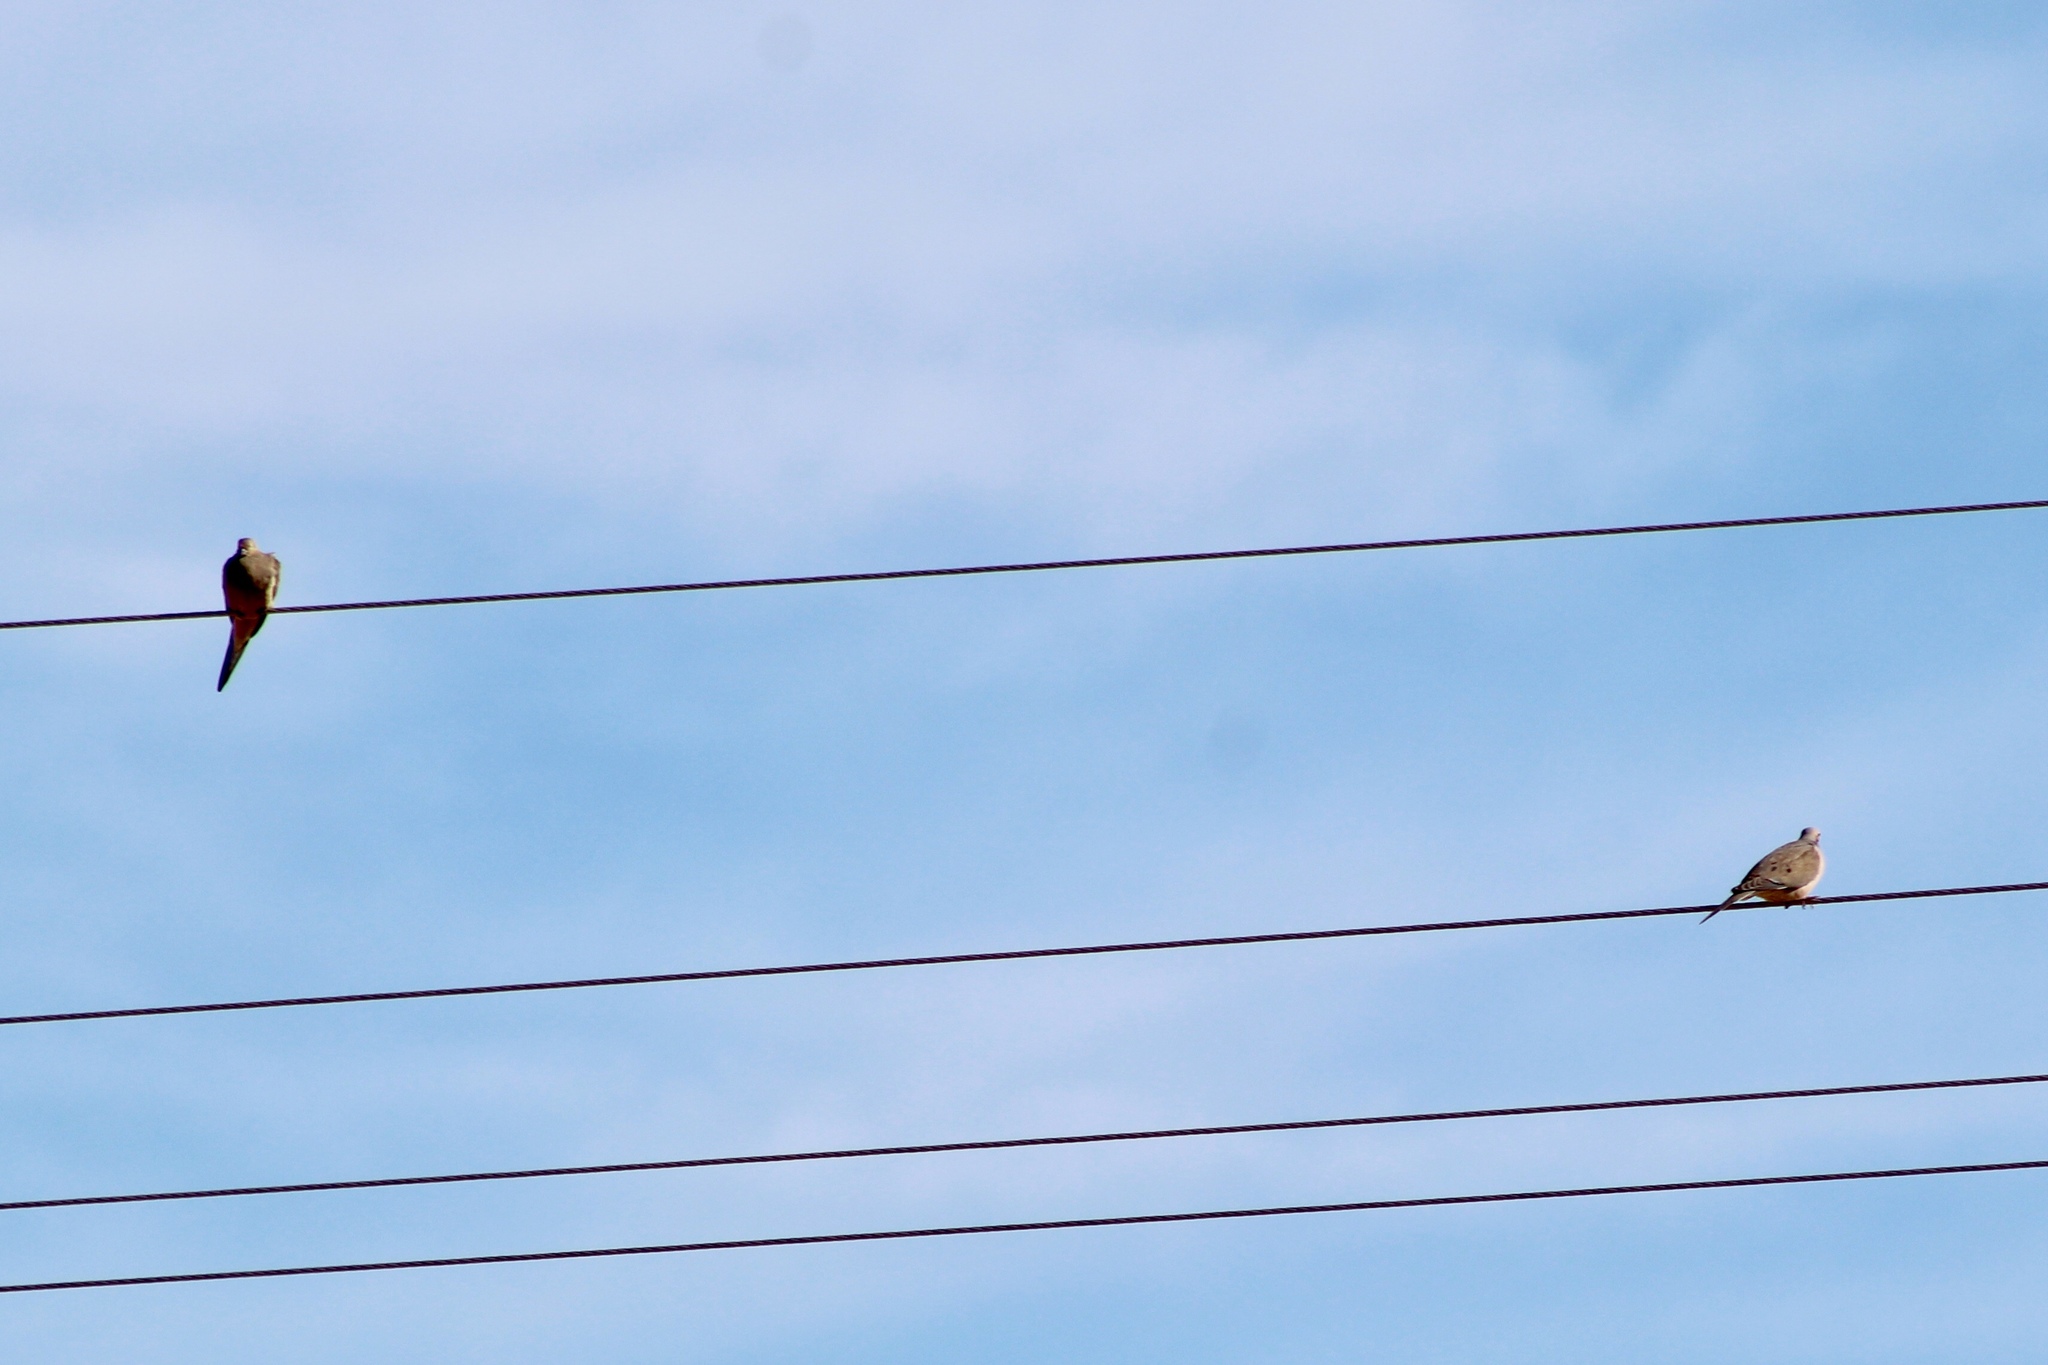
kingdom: Animalia
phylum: Chordata
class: Aves
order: Columbiformes
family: Columbidae
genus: Zenaida
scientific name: Zenaida macroura
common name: Mourning dove
